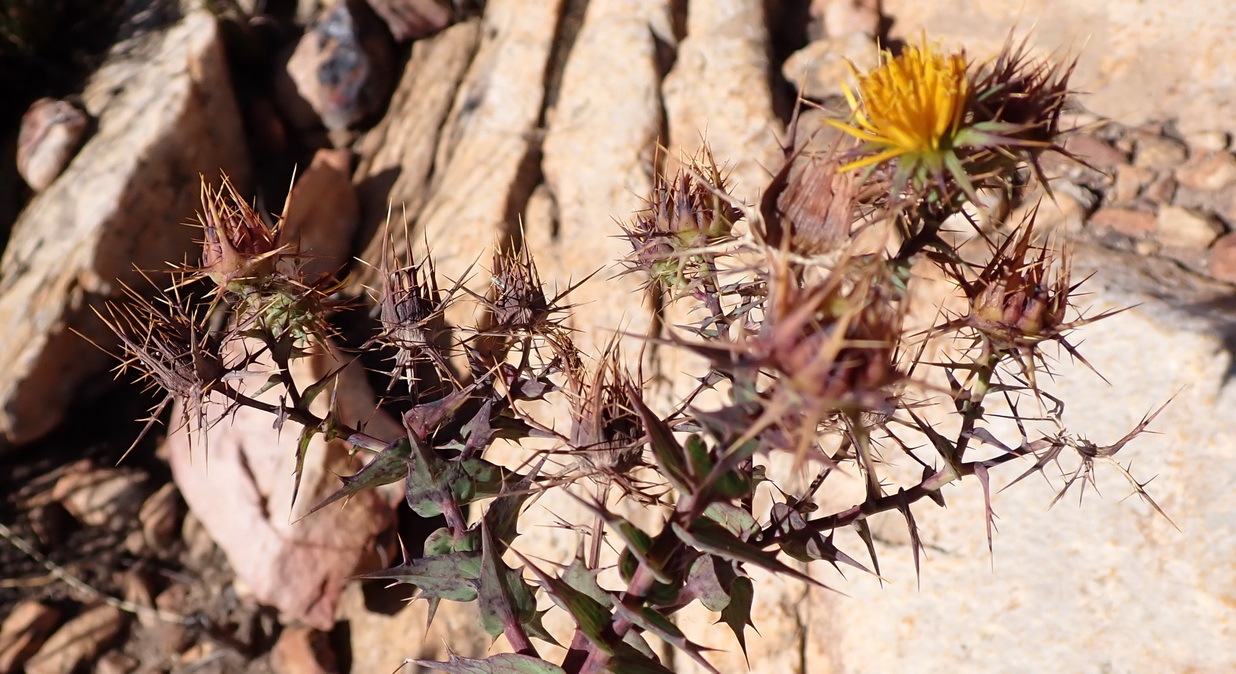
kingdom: Plantae
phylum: Tracheophyta
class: Magnoliopsida
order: Asterales
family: Asteraceae
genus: Berkheya
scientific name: Berkheya cruciata
